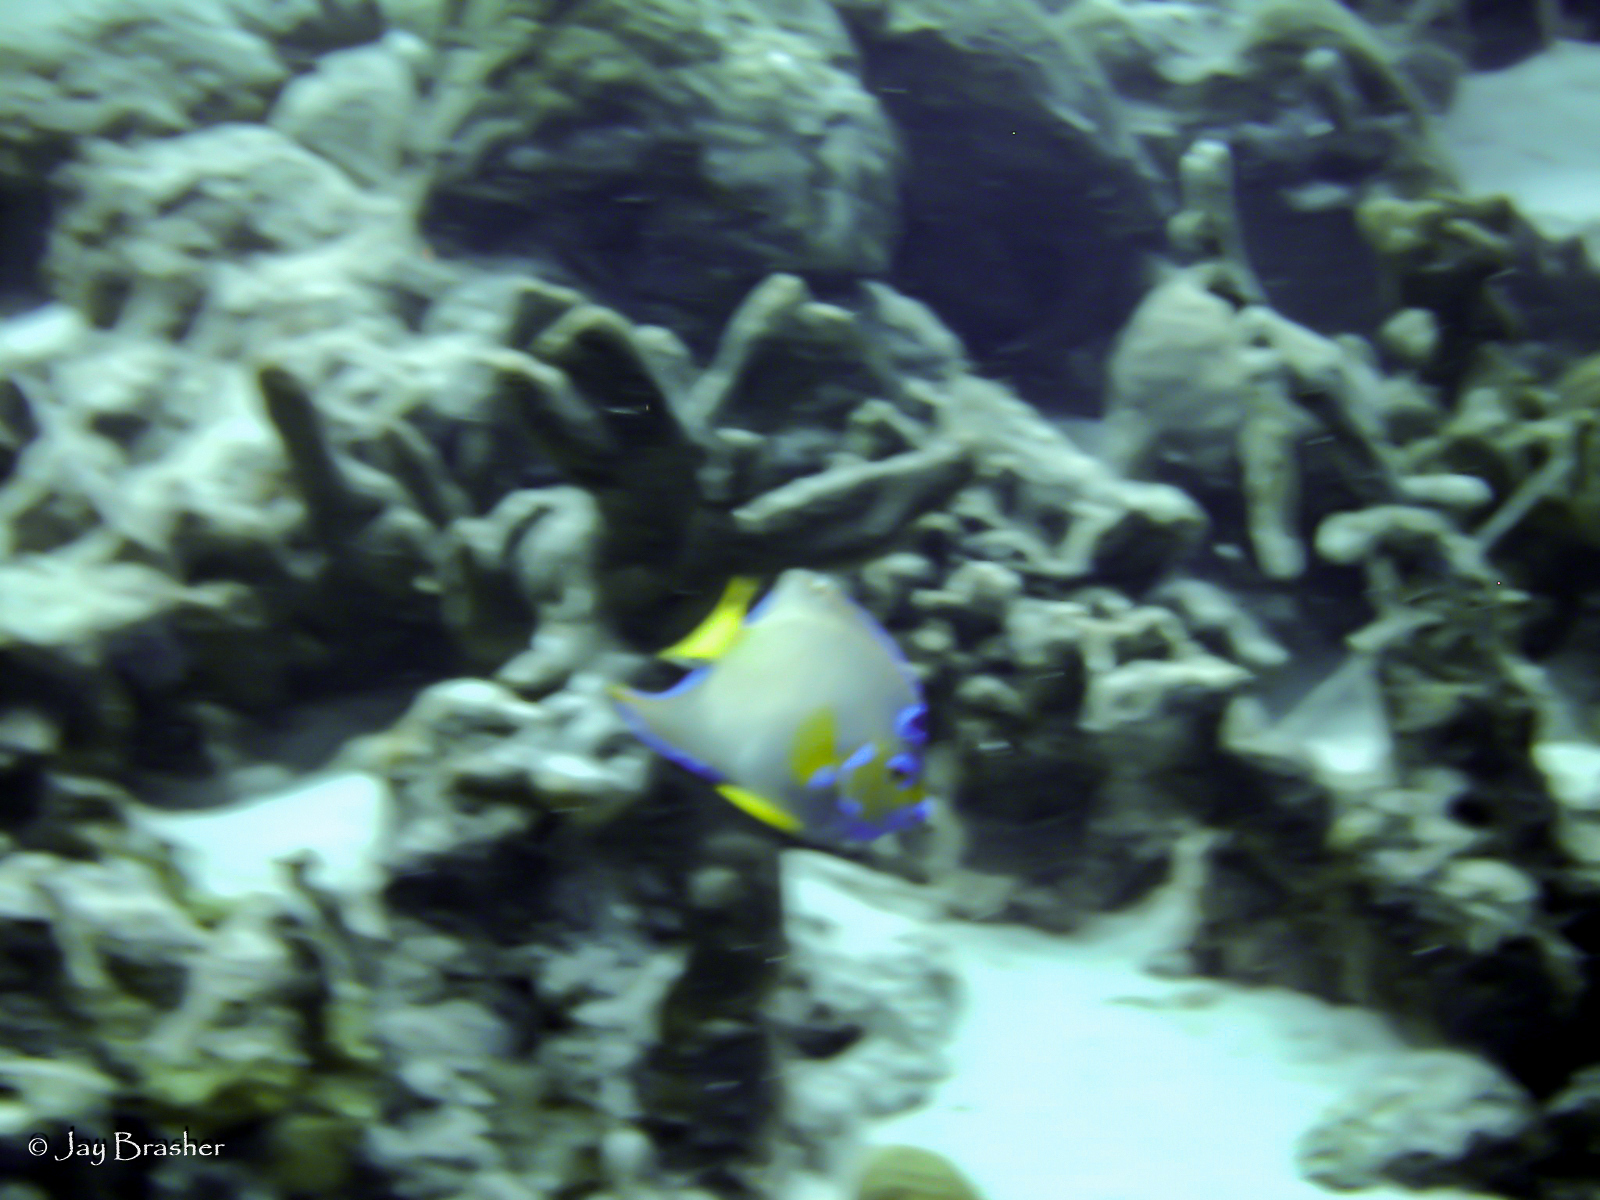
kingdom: Animalia
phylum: Chordata
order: Perciformes
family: Pomacanthidae
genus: Holacanthus
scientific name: Holacanthus ciliaris
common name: Queen angelfish
